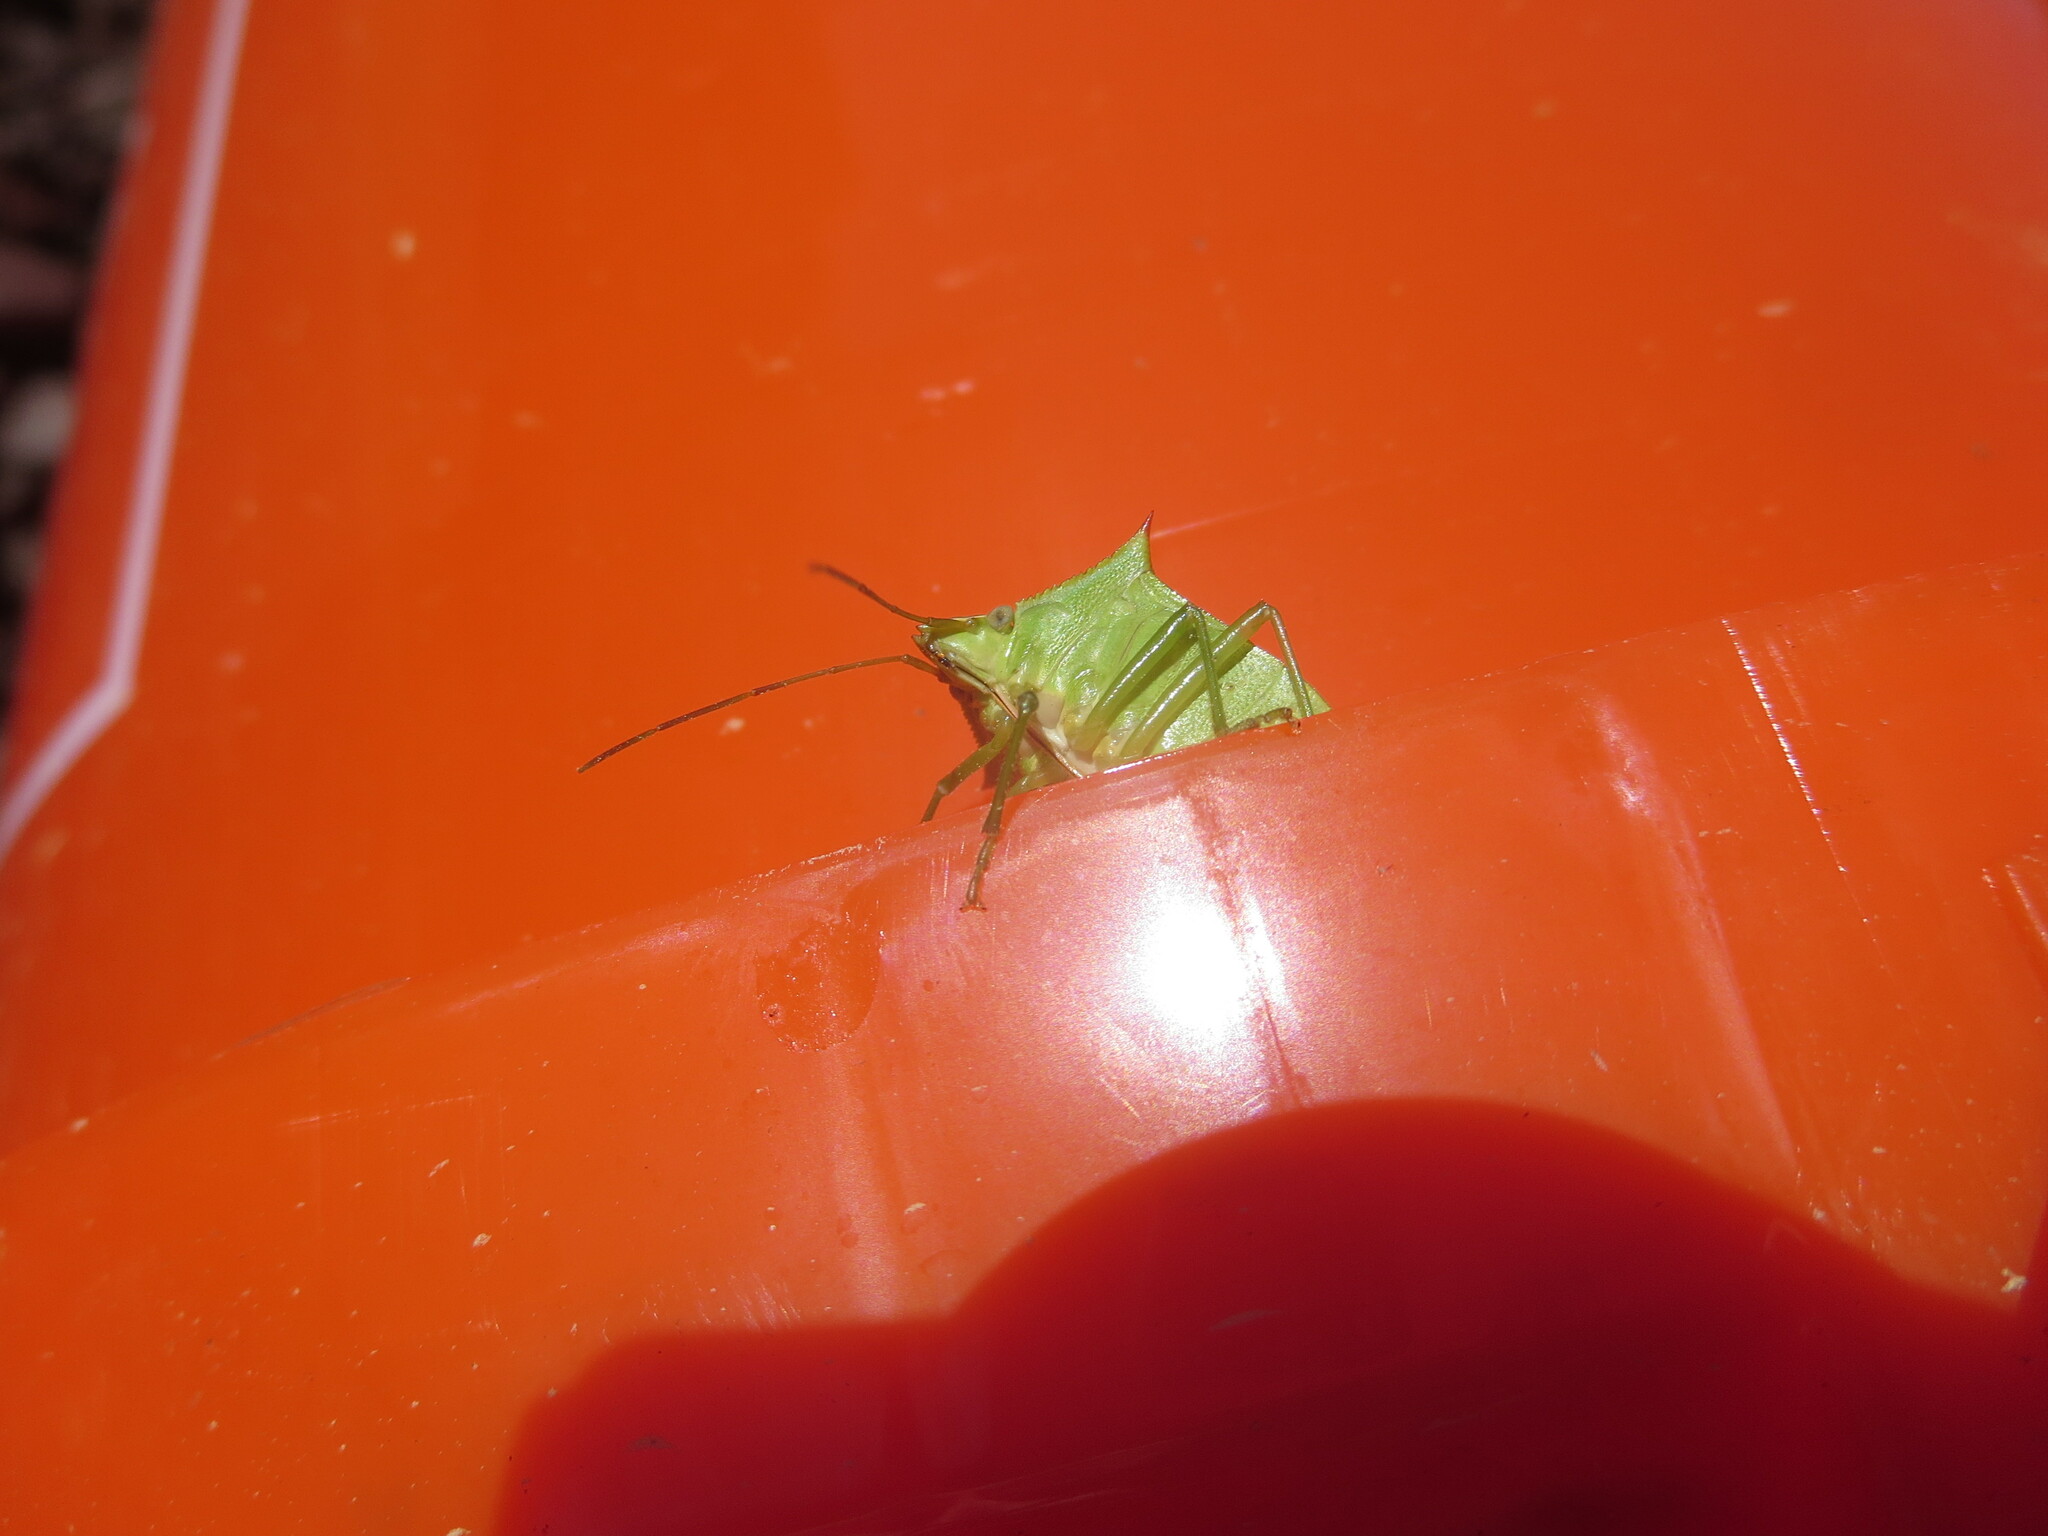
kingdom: Animalia
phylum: Arthropoda
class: Insecta
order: Hemiptera
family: Pentatomidae
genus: Loxa
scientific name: Loxa flavicollis
